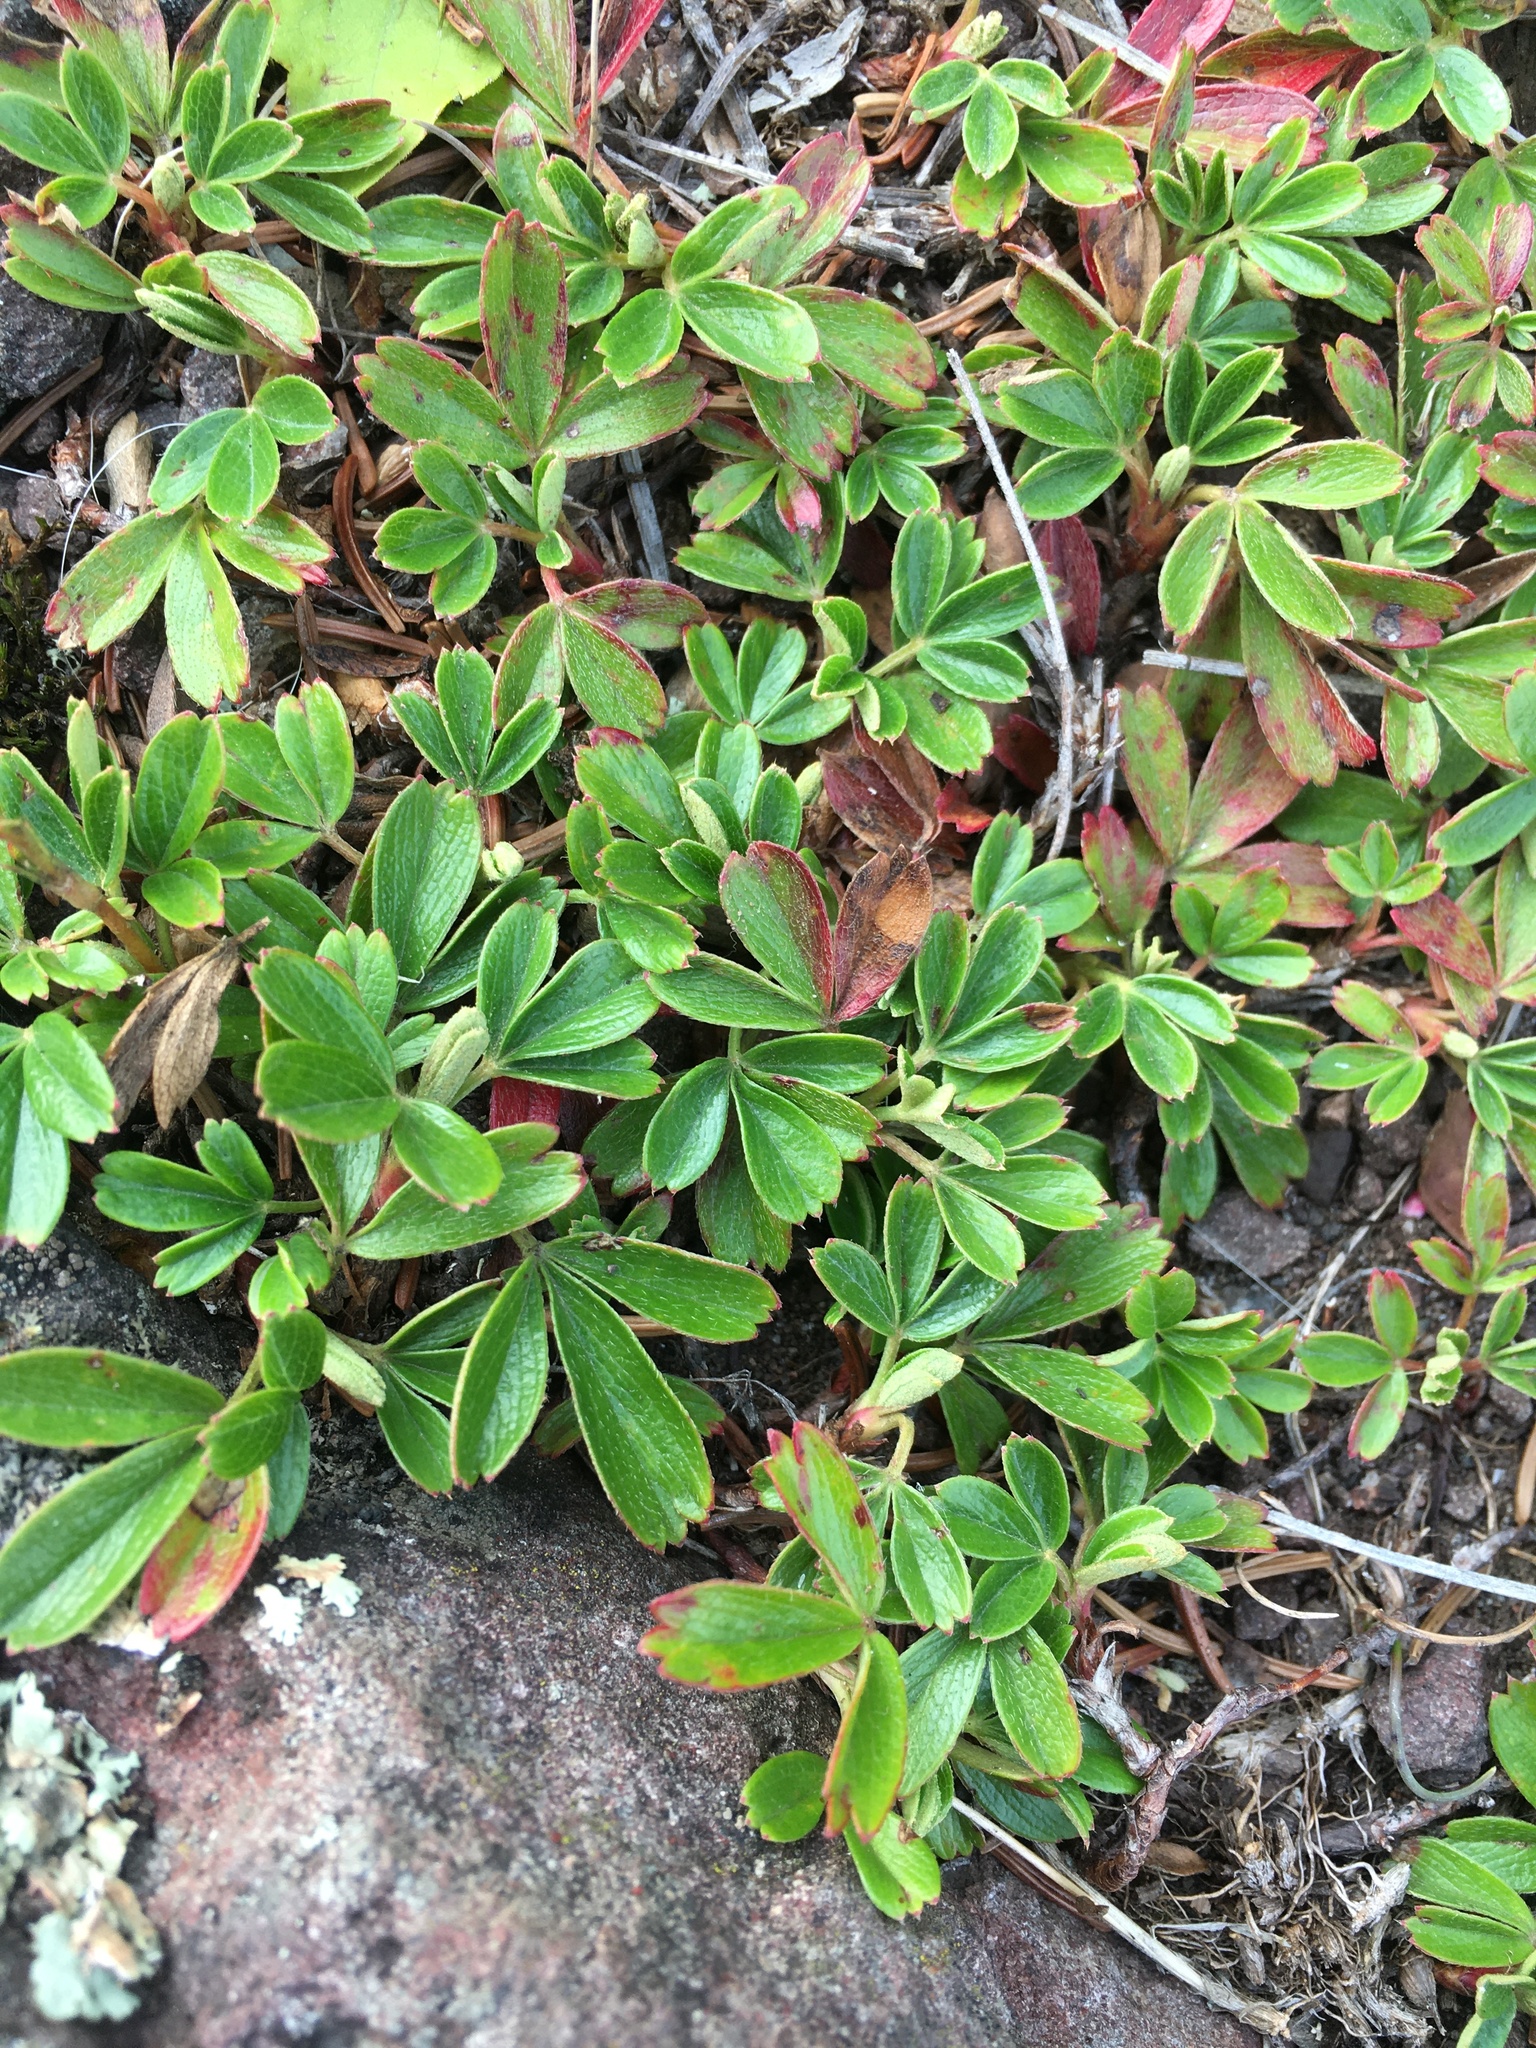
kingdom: Plantae
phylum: Tracheophyta
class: Magnoliopsida
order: Rosales
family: Rosaceae
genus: Sibbaldia
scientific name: Sibbaldia tridentata
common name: Three-toothed cinquefoil
